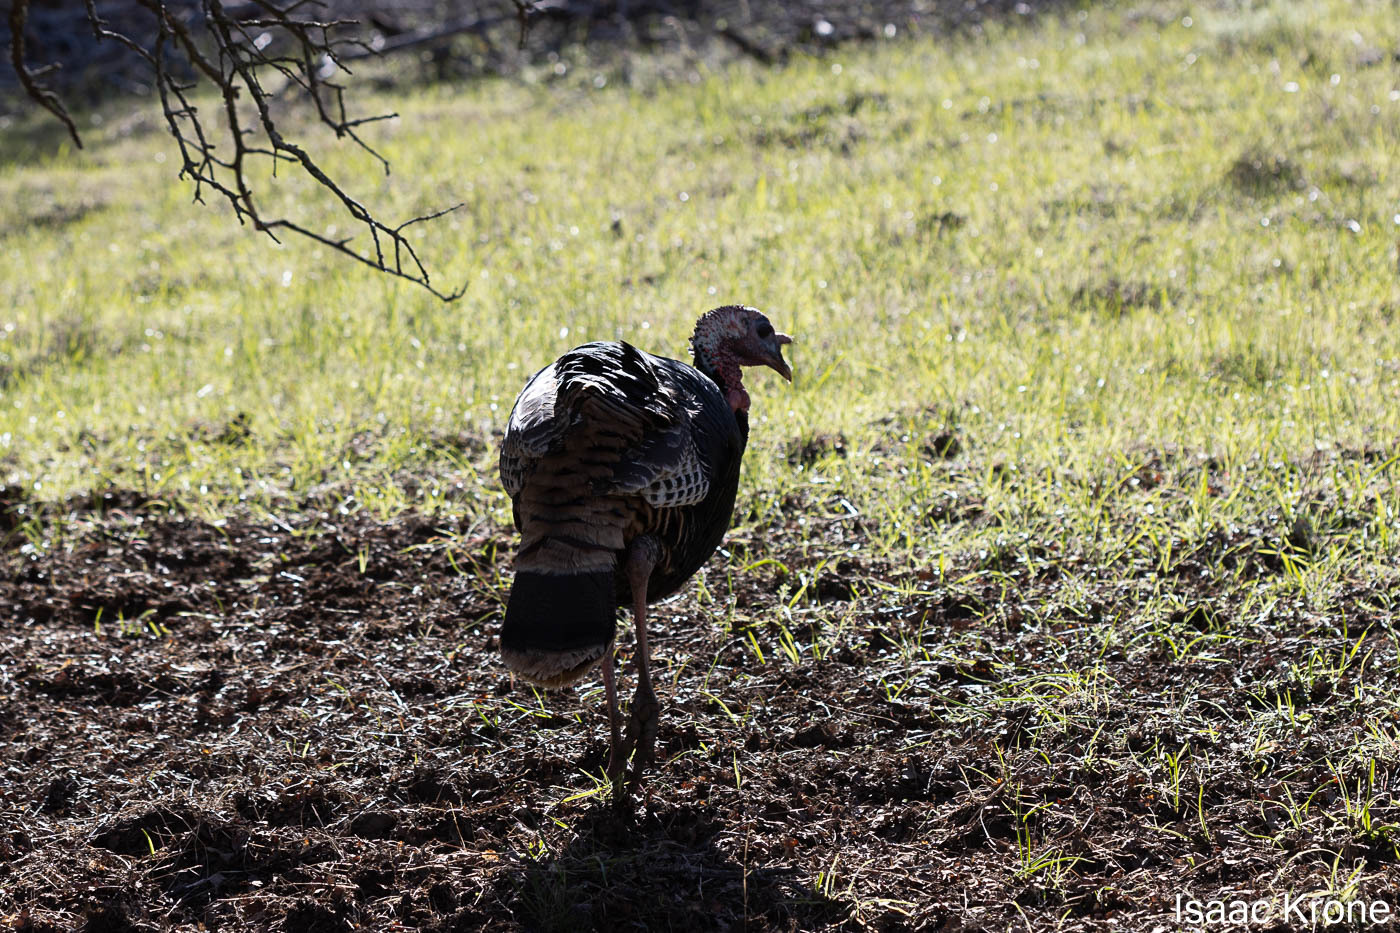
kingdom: Animalia
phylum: Chordata
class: Aves
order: Galliformes
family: Phasianidae
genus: Meleagris
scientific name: Meleagris gallopavo
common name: Wild turkey
